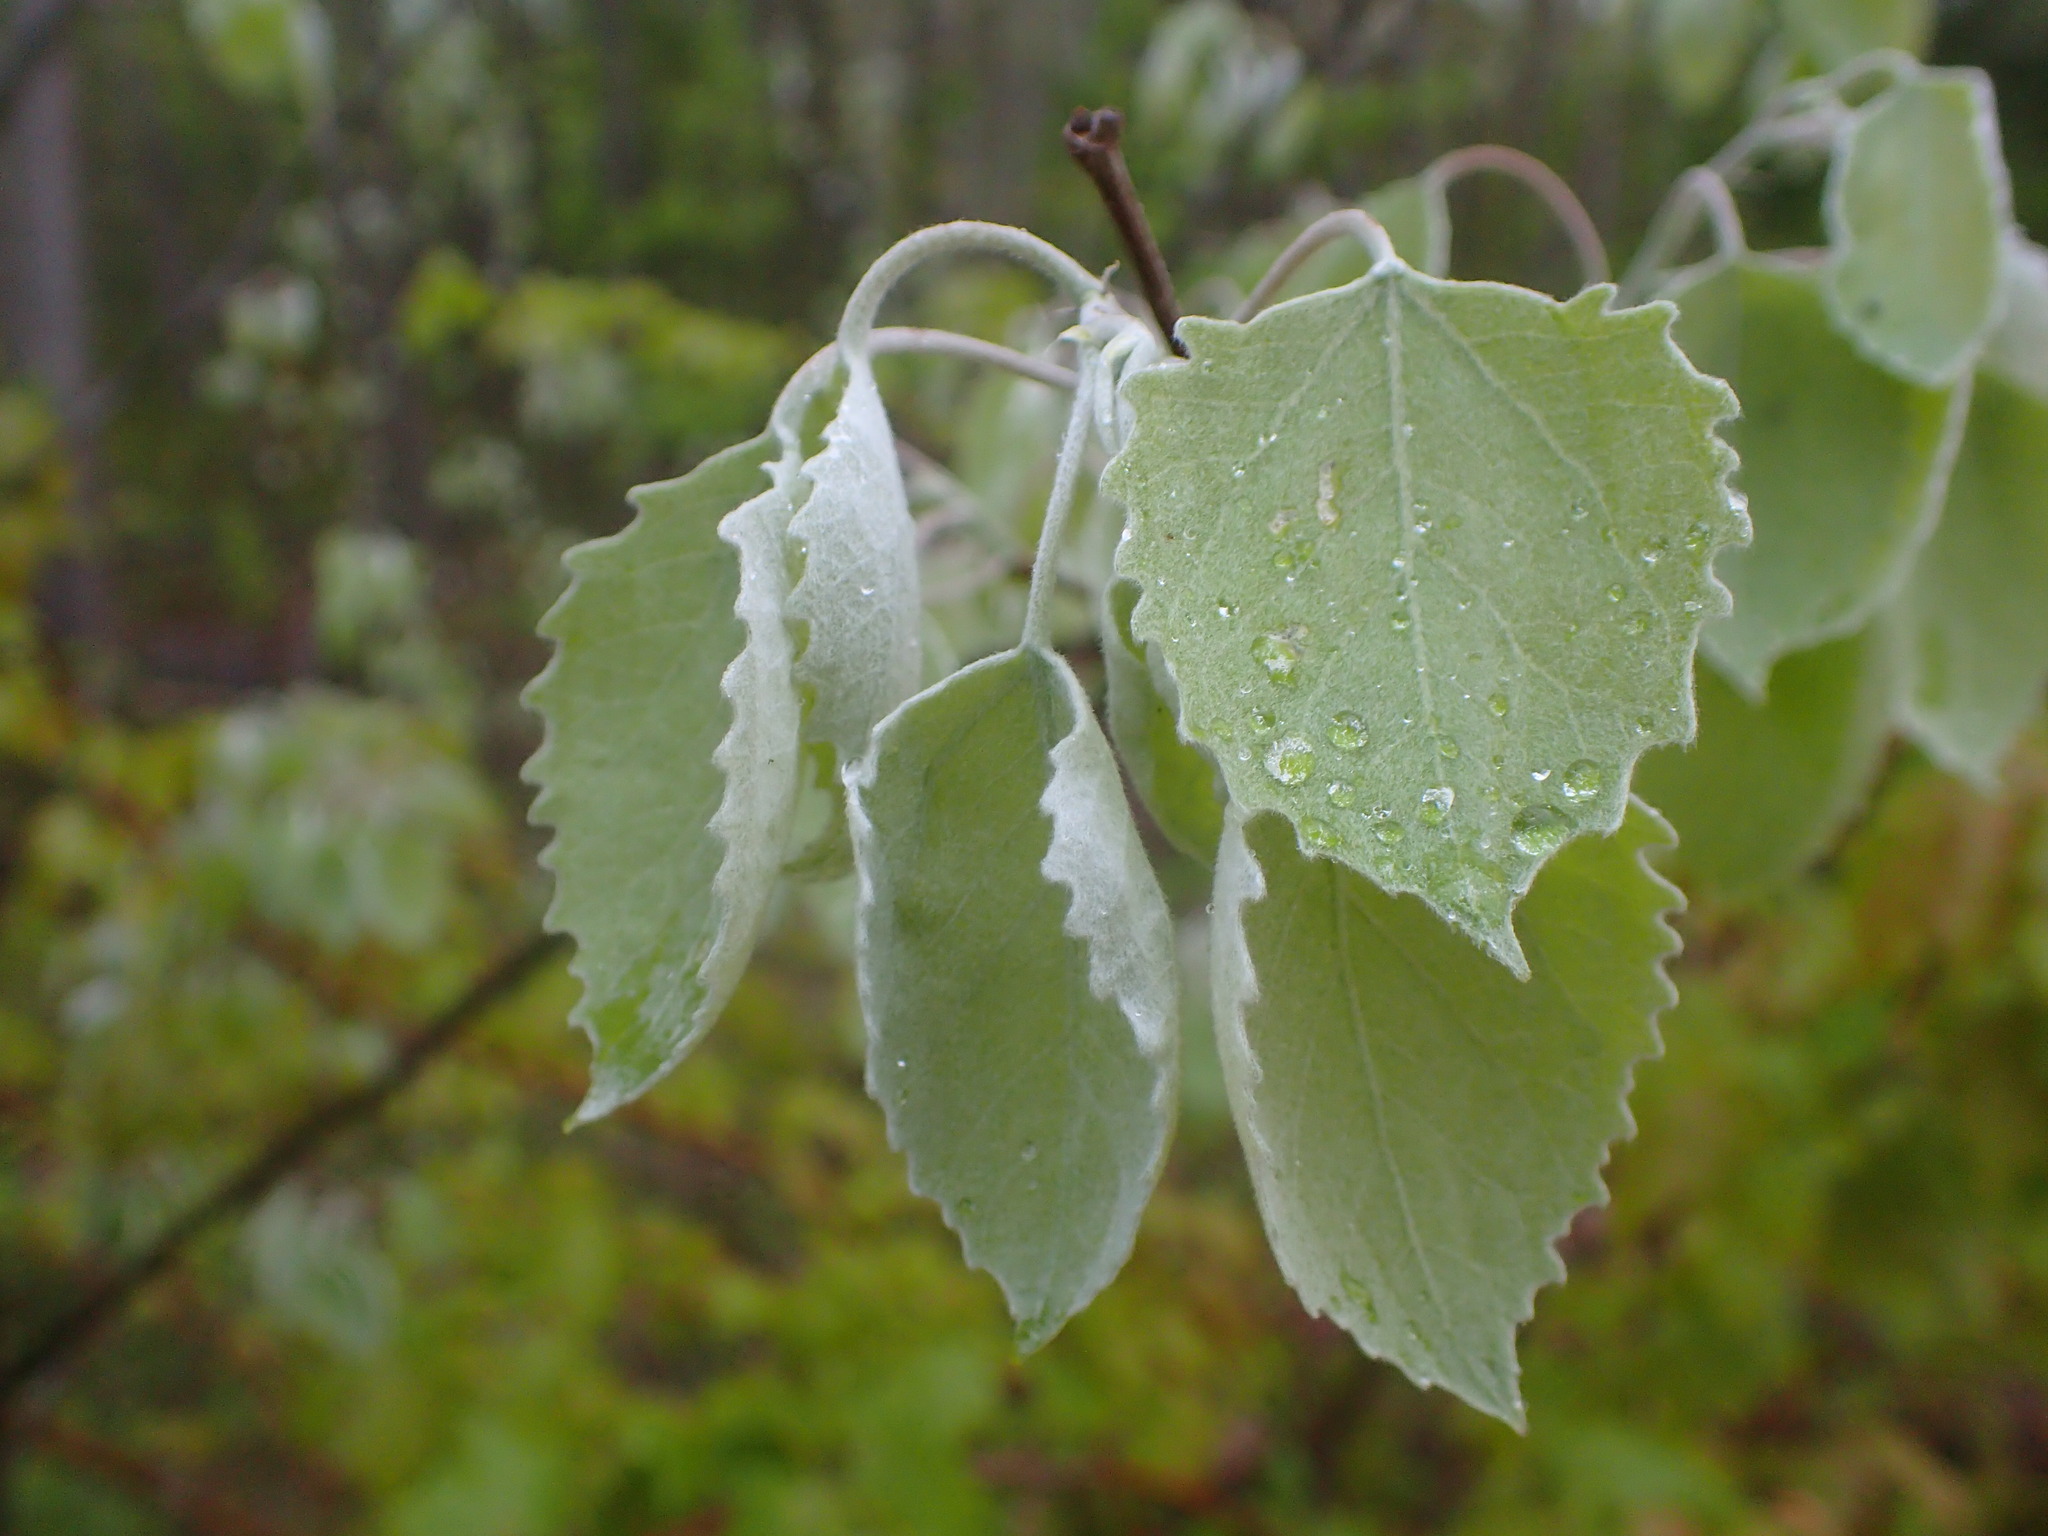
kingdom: Plantae
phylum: Tracheophyta
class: Magnoliopsida
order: Malpighiales
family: Salicaceae
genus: Populus
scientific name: Populus grandidentata
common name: Bigtooth aspen
